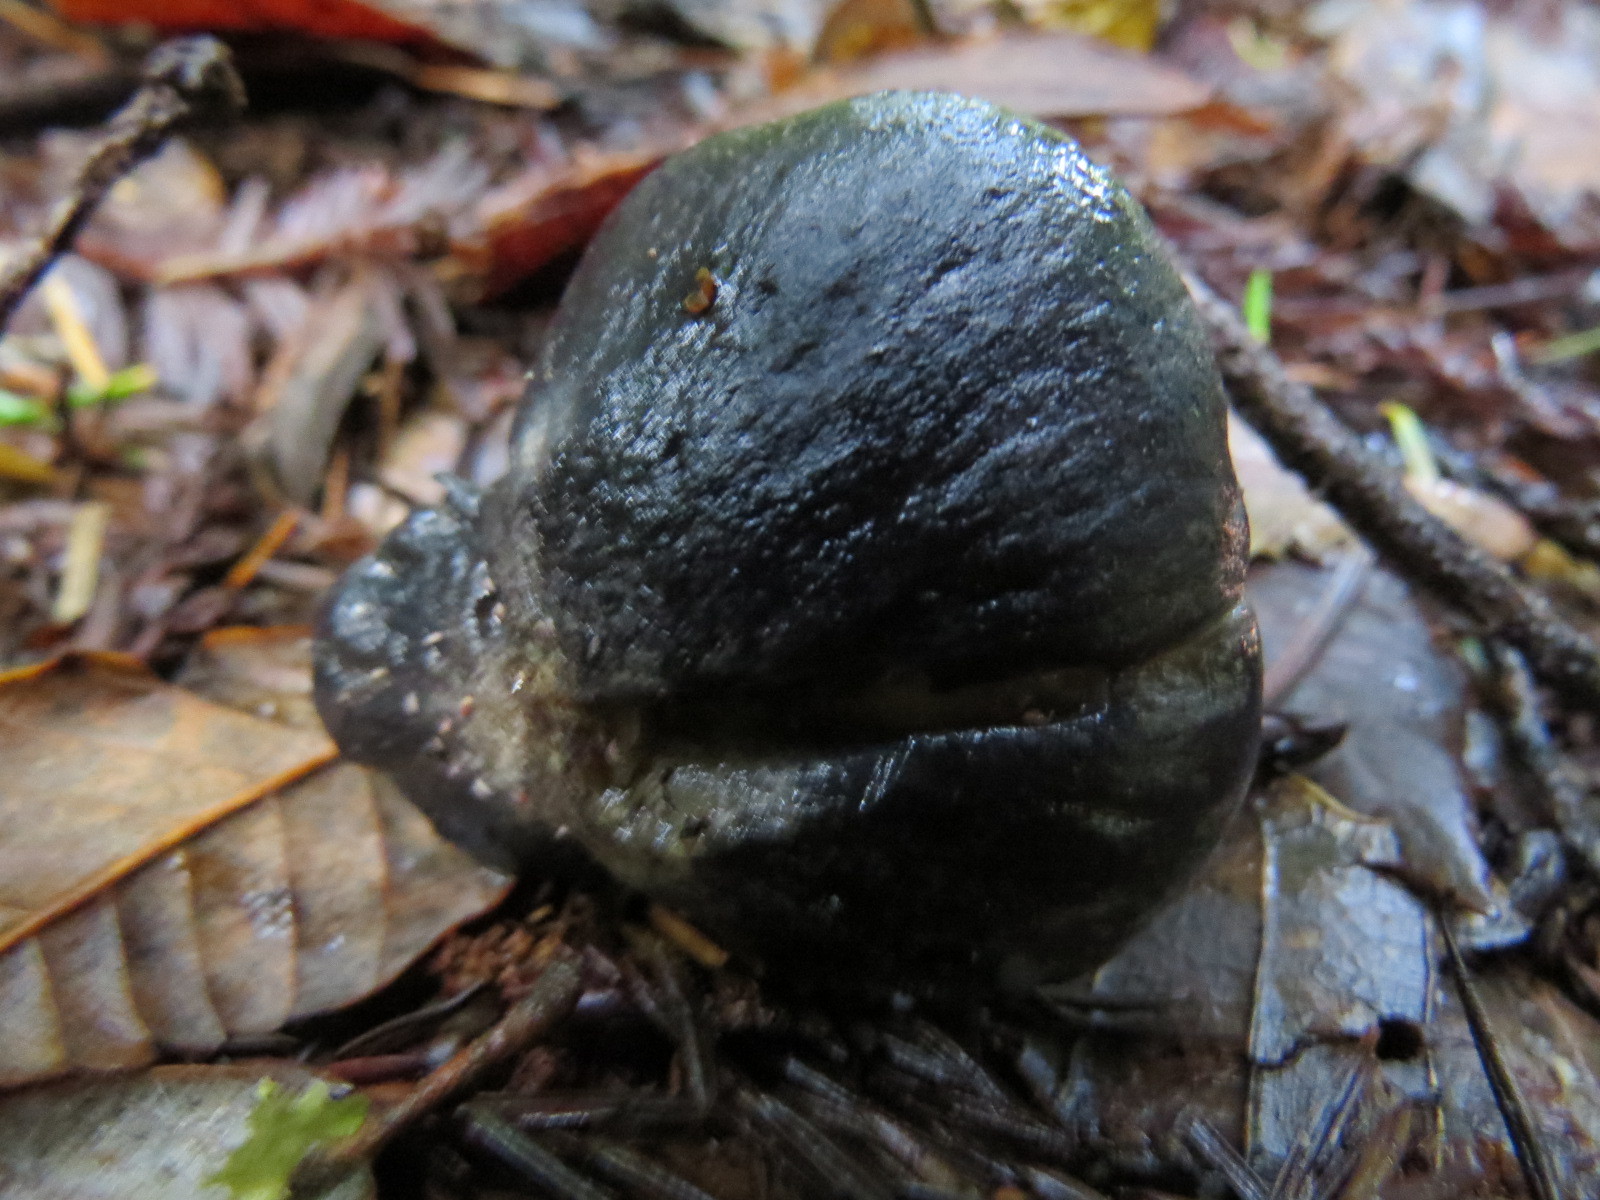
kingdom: Fungi
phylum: Basidiomycota
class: Agaricomycetes
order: Agaricales
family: Entolomataceae
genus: Entoloma
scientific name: Entoloma medianox
